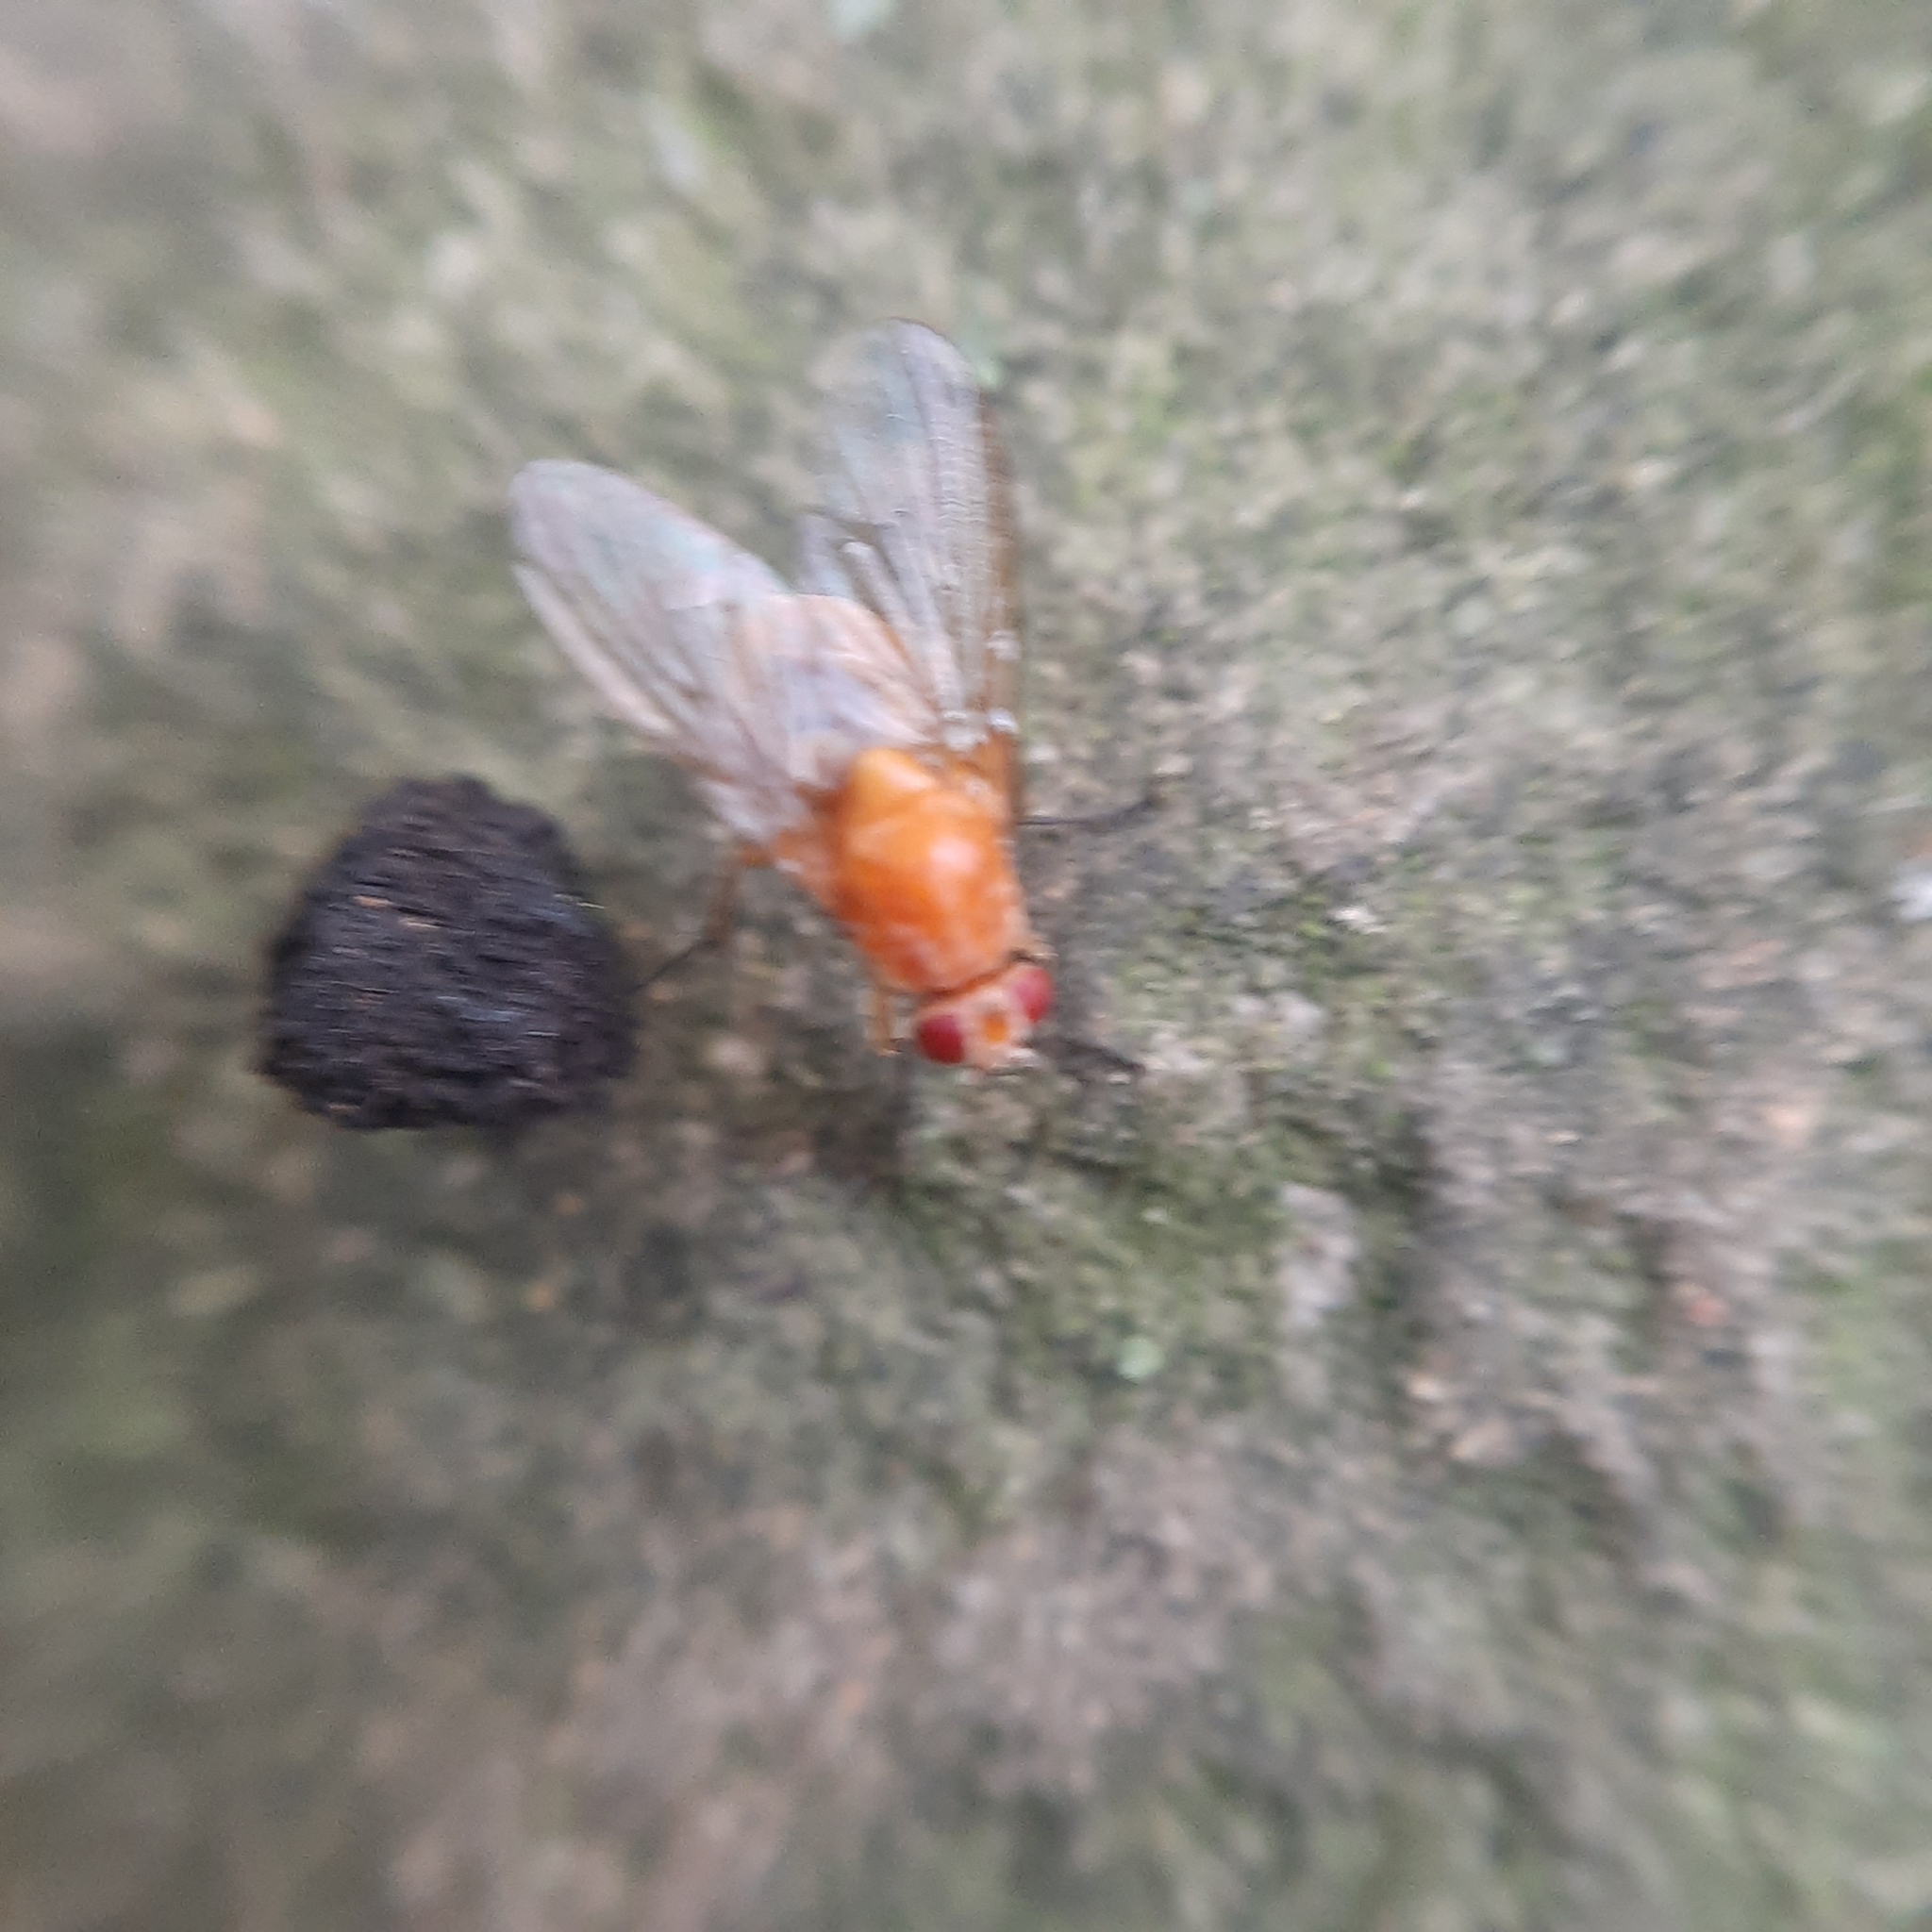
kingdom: Animalia
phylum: Arthropoda
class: Insecta
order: Diptera
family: Muscidae
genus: Phaonia
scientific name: Phaonia pallida
